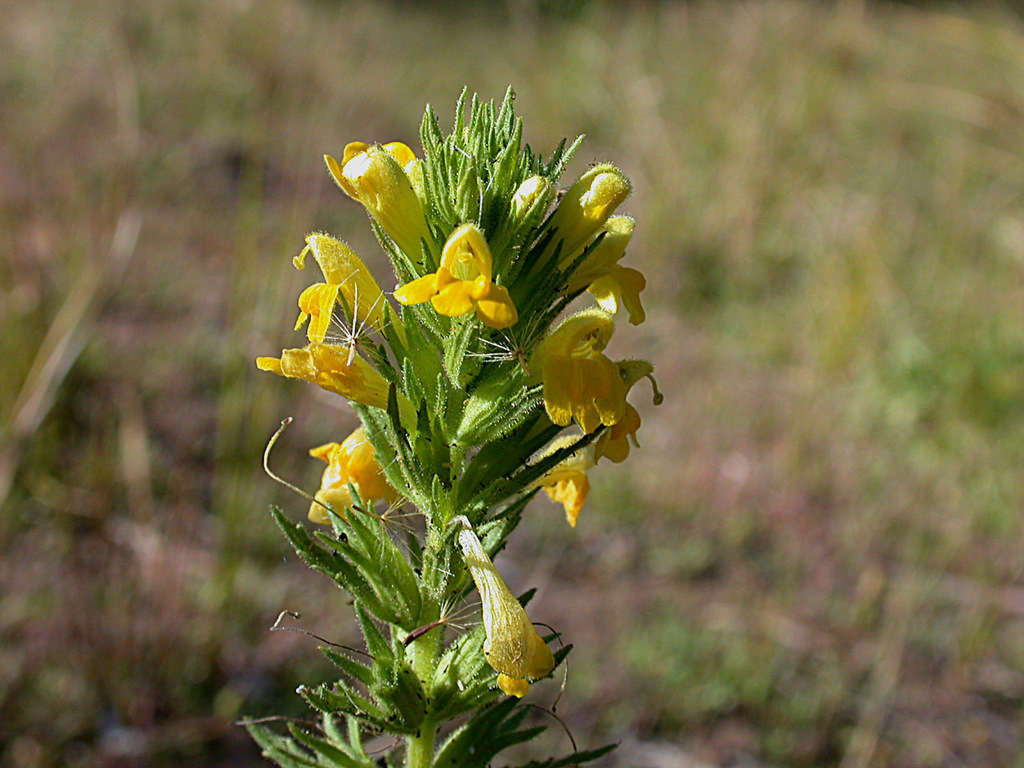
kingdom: Plantae
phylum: Tracheophyta
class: Magnoliopsida
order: Lamiales
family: Orobanchaceae
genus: Bellardia
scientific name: Bellardia viscosa
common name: Sticky parentucellia
